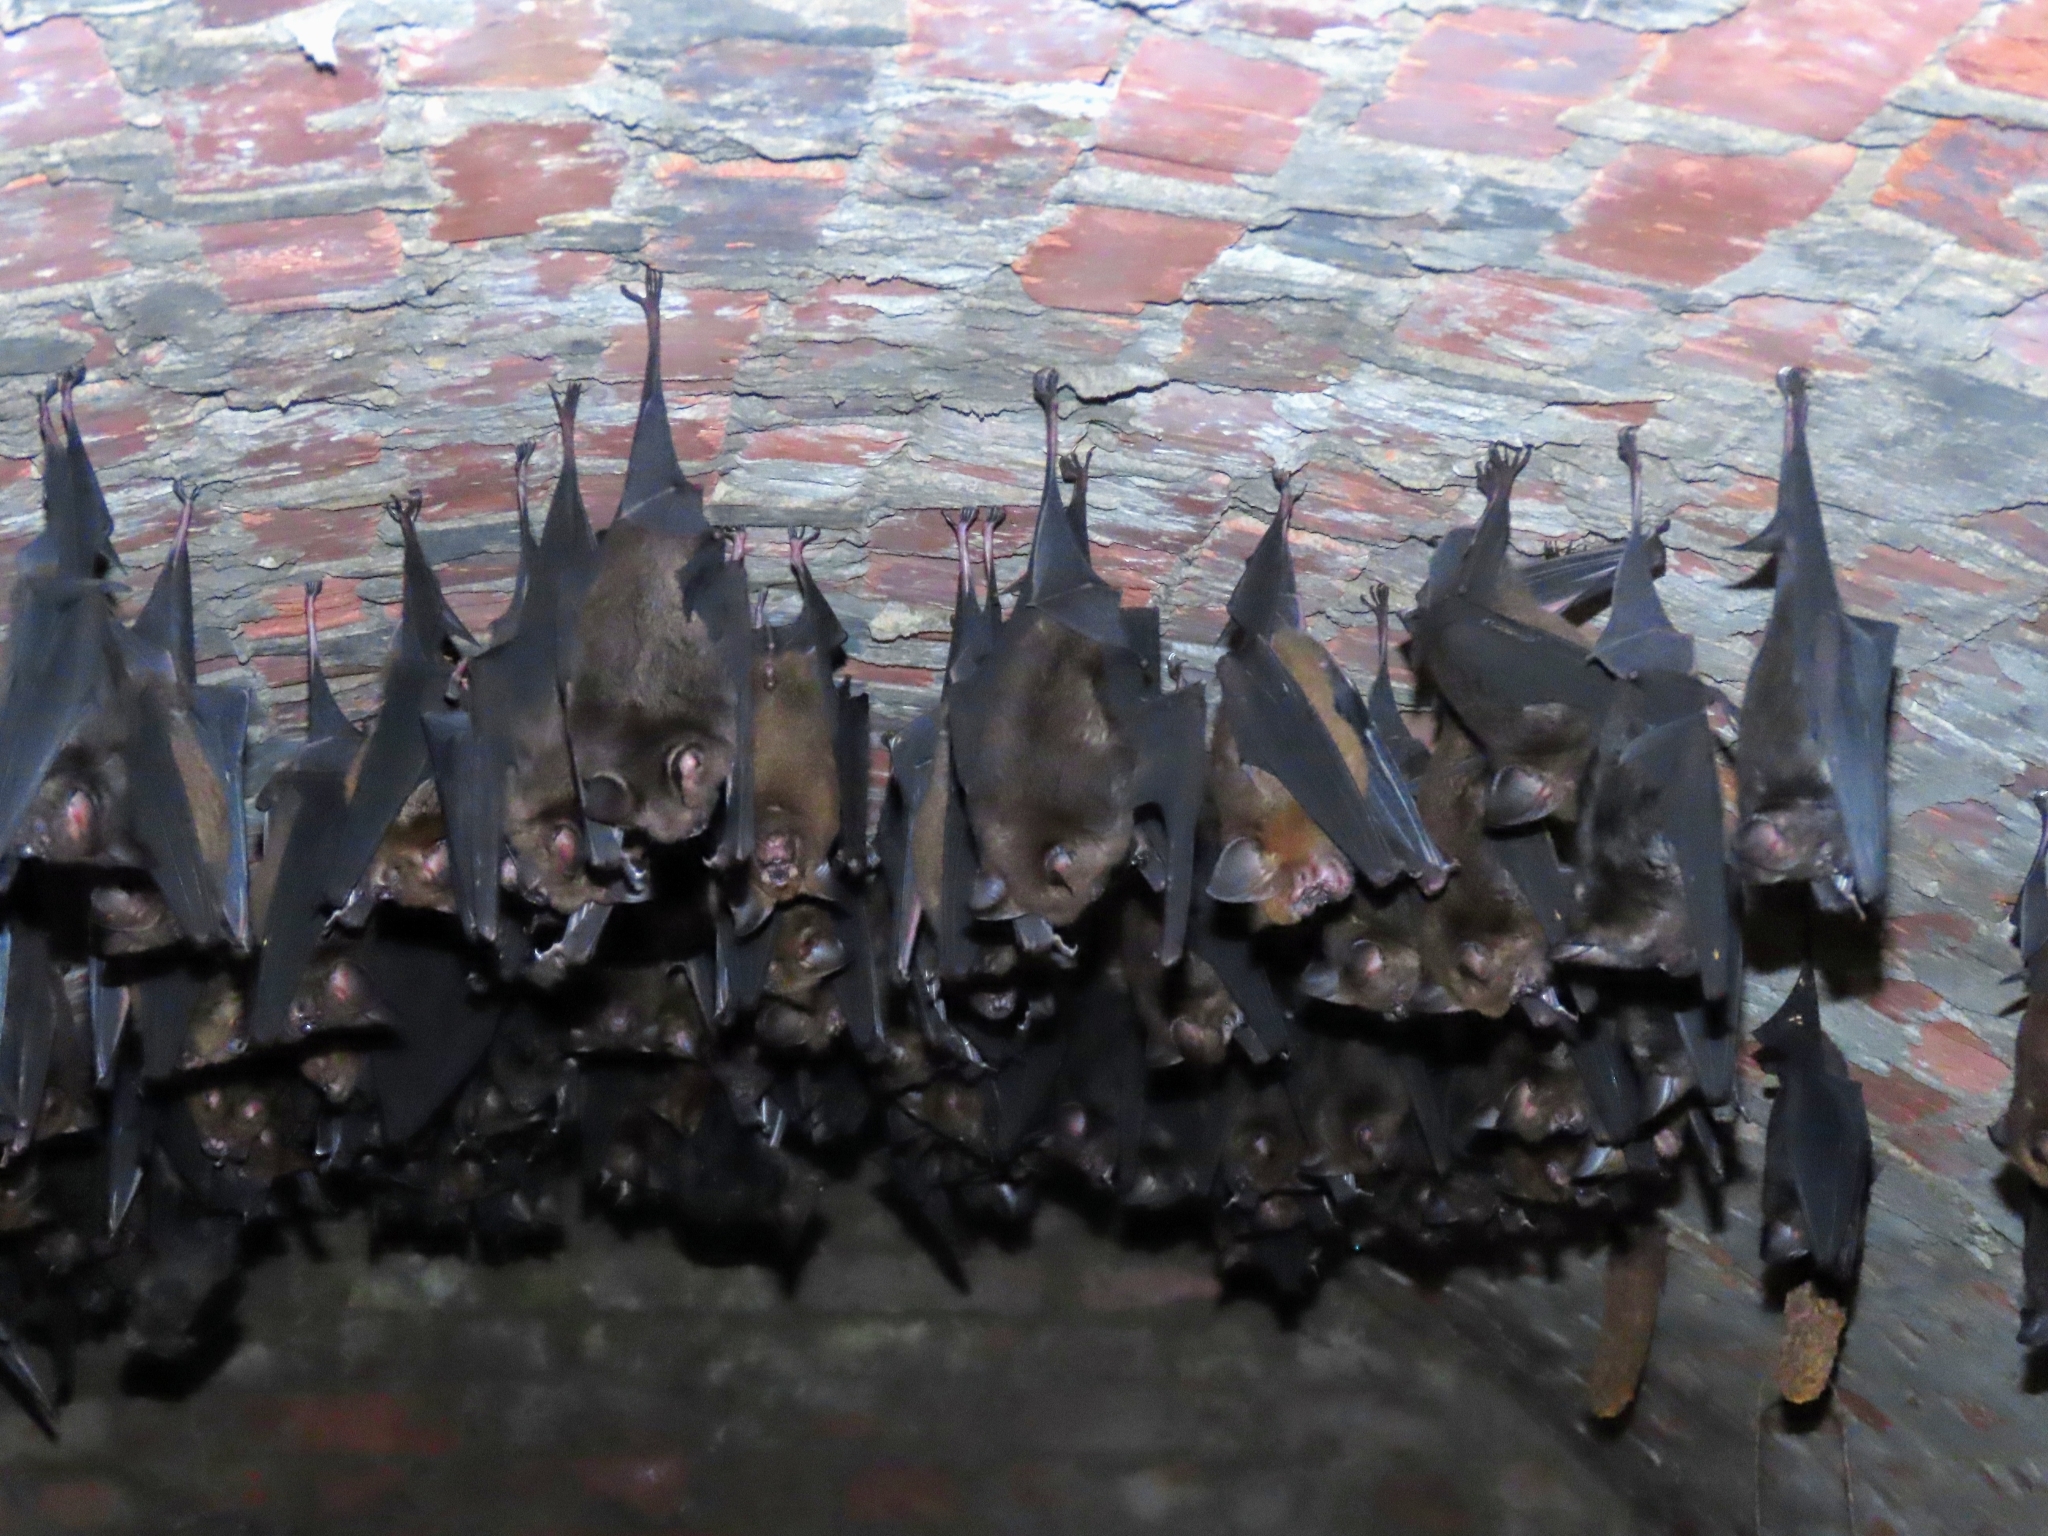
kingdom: Animalia
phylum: Chordata
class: Mammalia
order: Chiroptera
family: Hipposideridae
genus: Hipposideros
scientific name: Hipposideros armiger
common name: Great leaf-nosed bat
